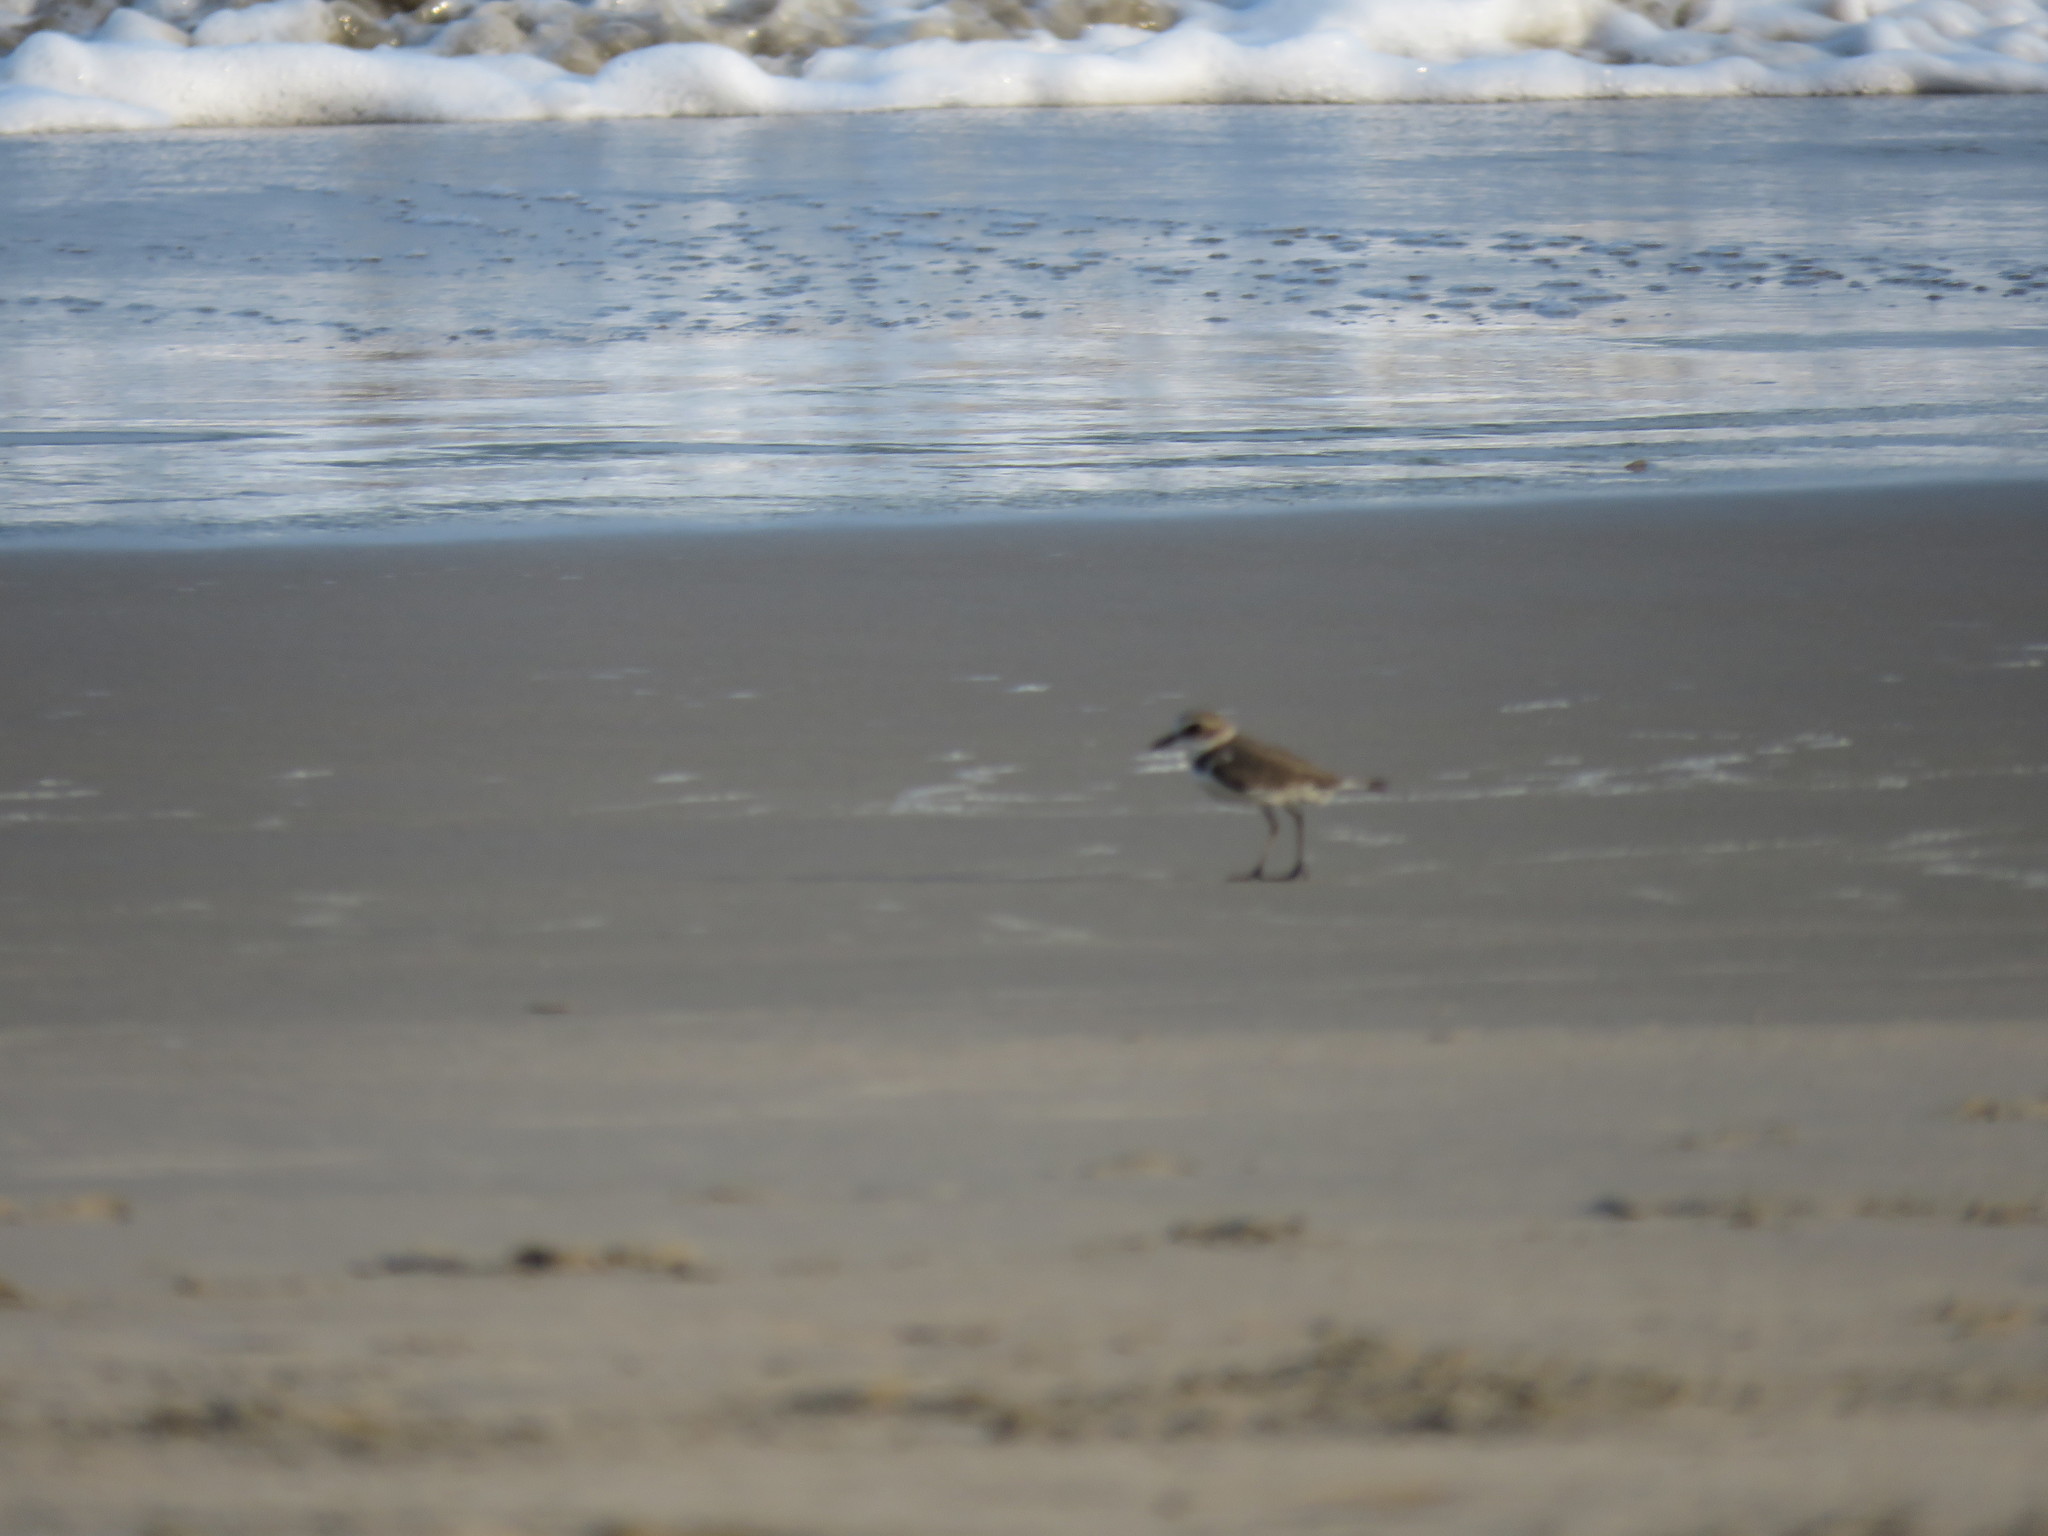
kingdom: Animalia
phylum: Chordata
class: Aves
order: Charadriiformes
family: Charadriidae
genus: Charadrius
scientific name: Charadrius alexandrinus
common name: Kentish plover
